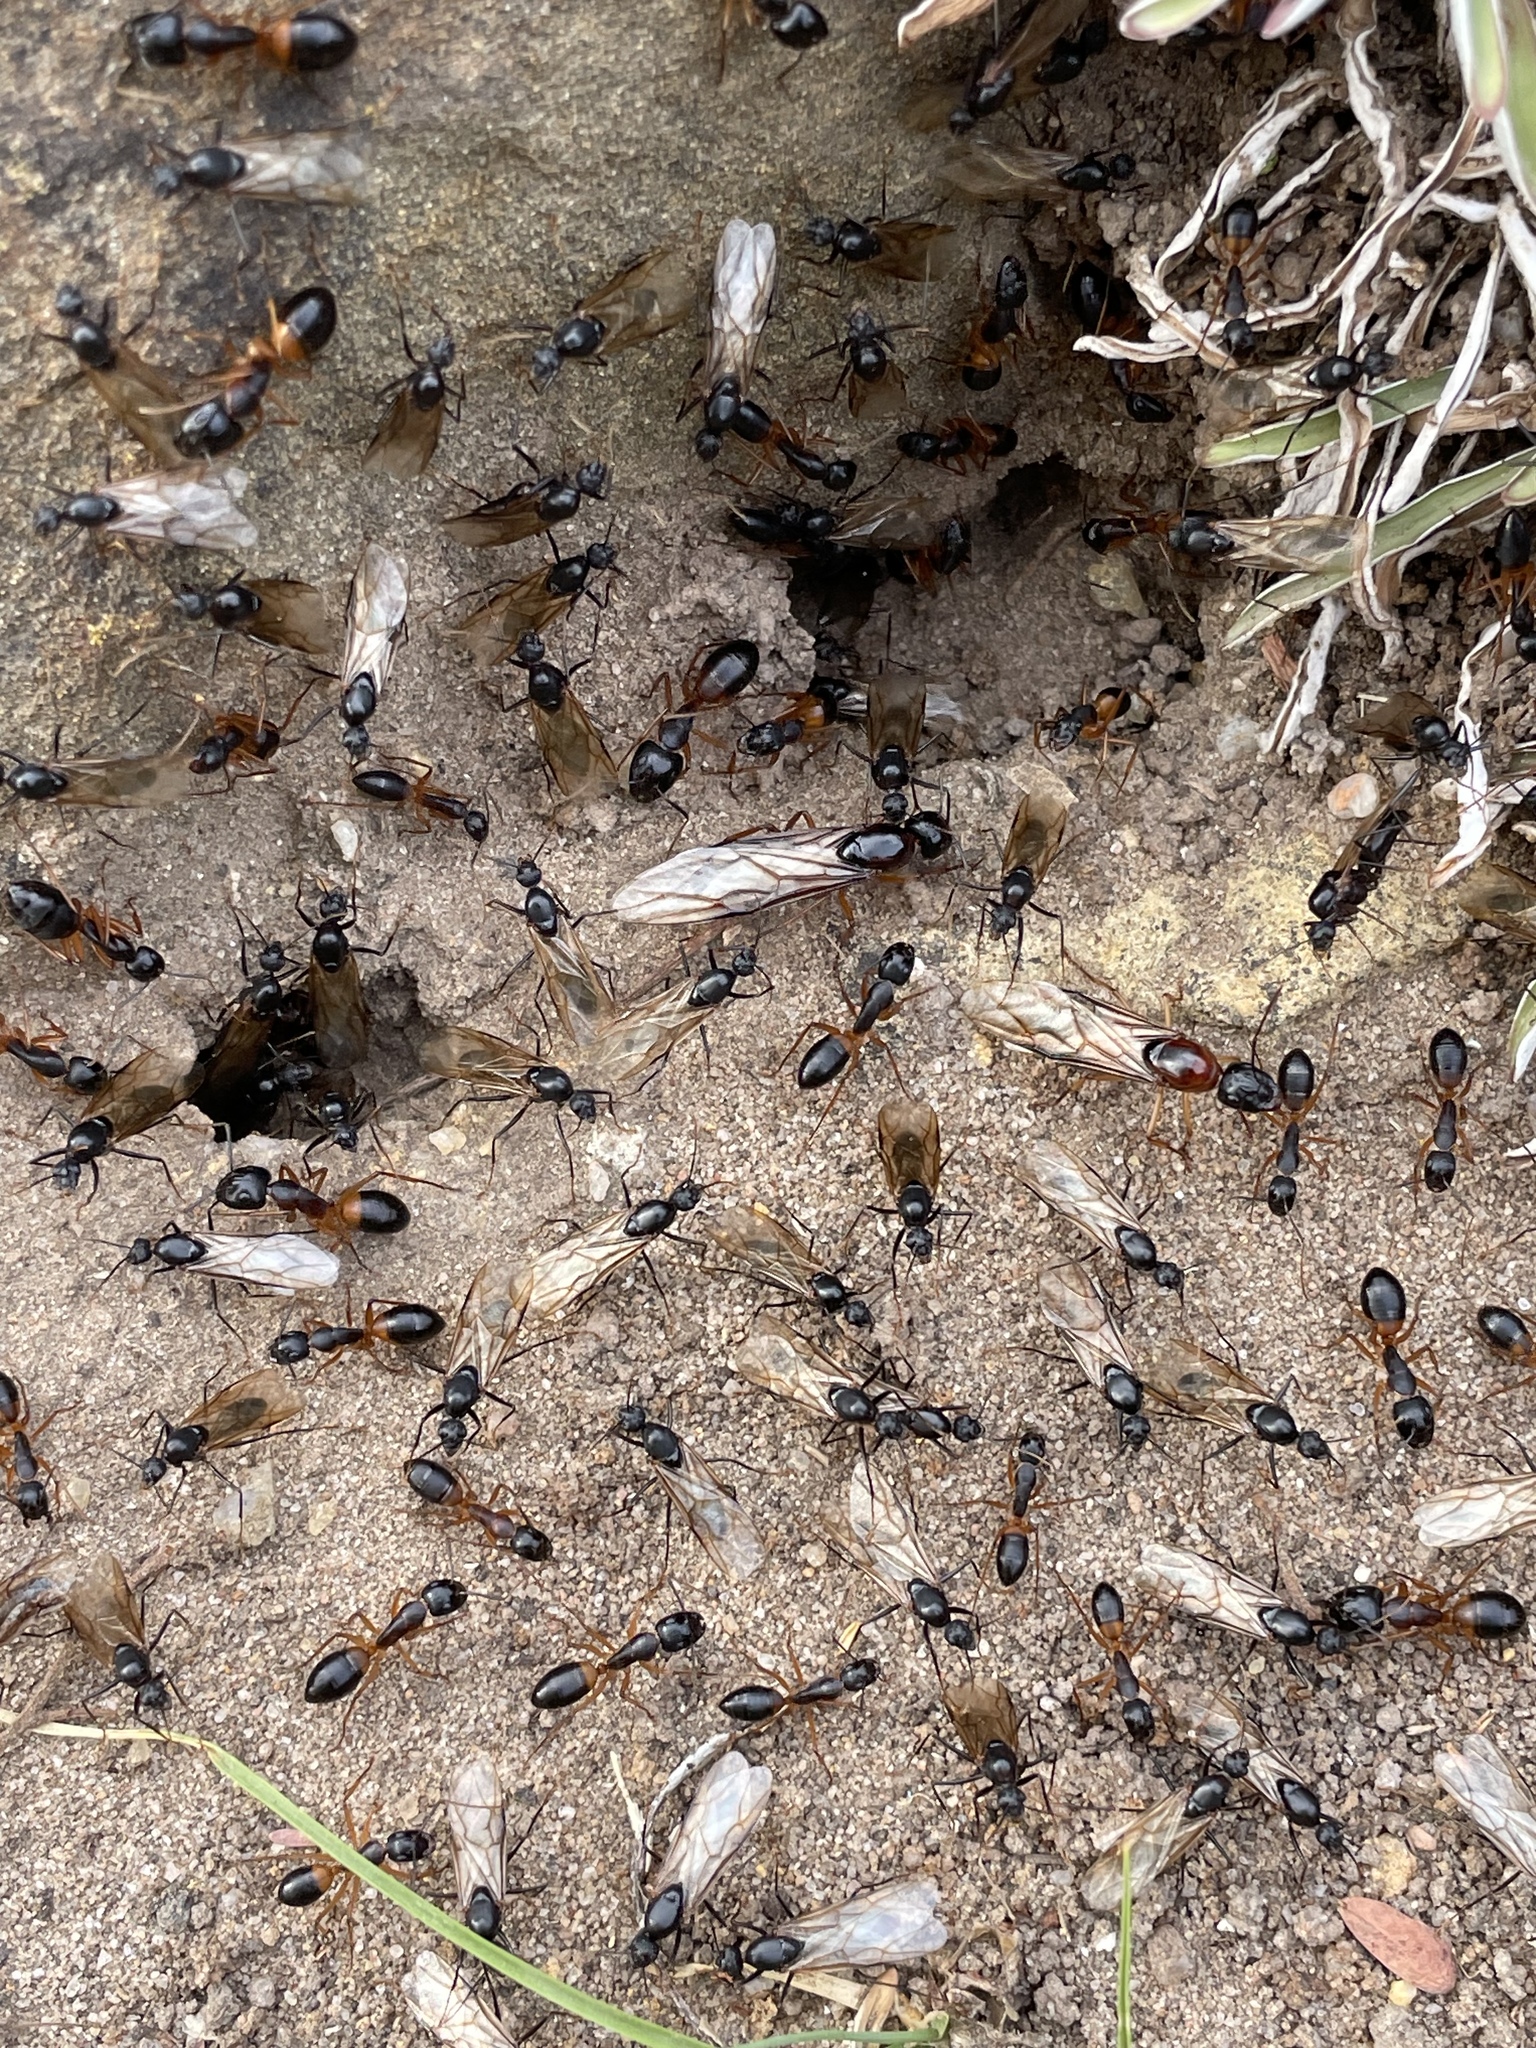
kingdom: Animalia
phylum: Arthropoda
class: Insecta
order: Hymenoptera
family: Formicidae
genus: Camponotus
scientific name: Camponotus consobrinus
